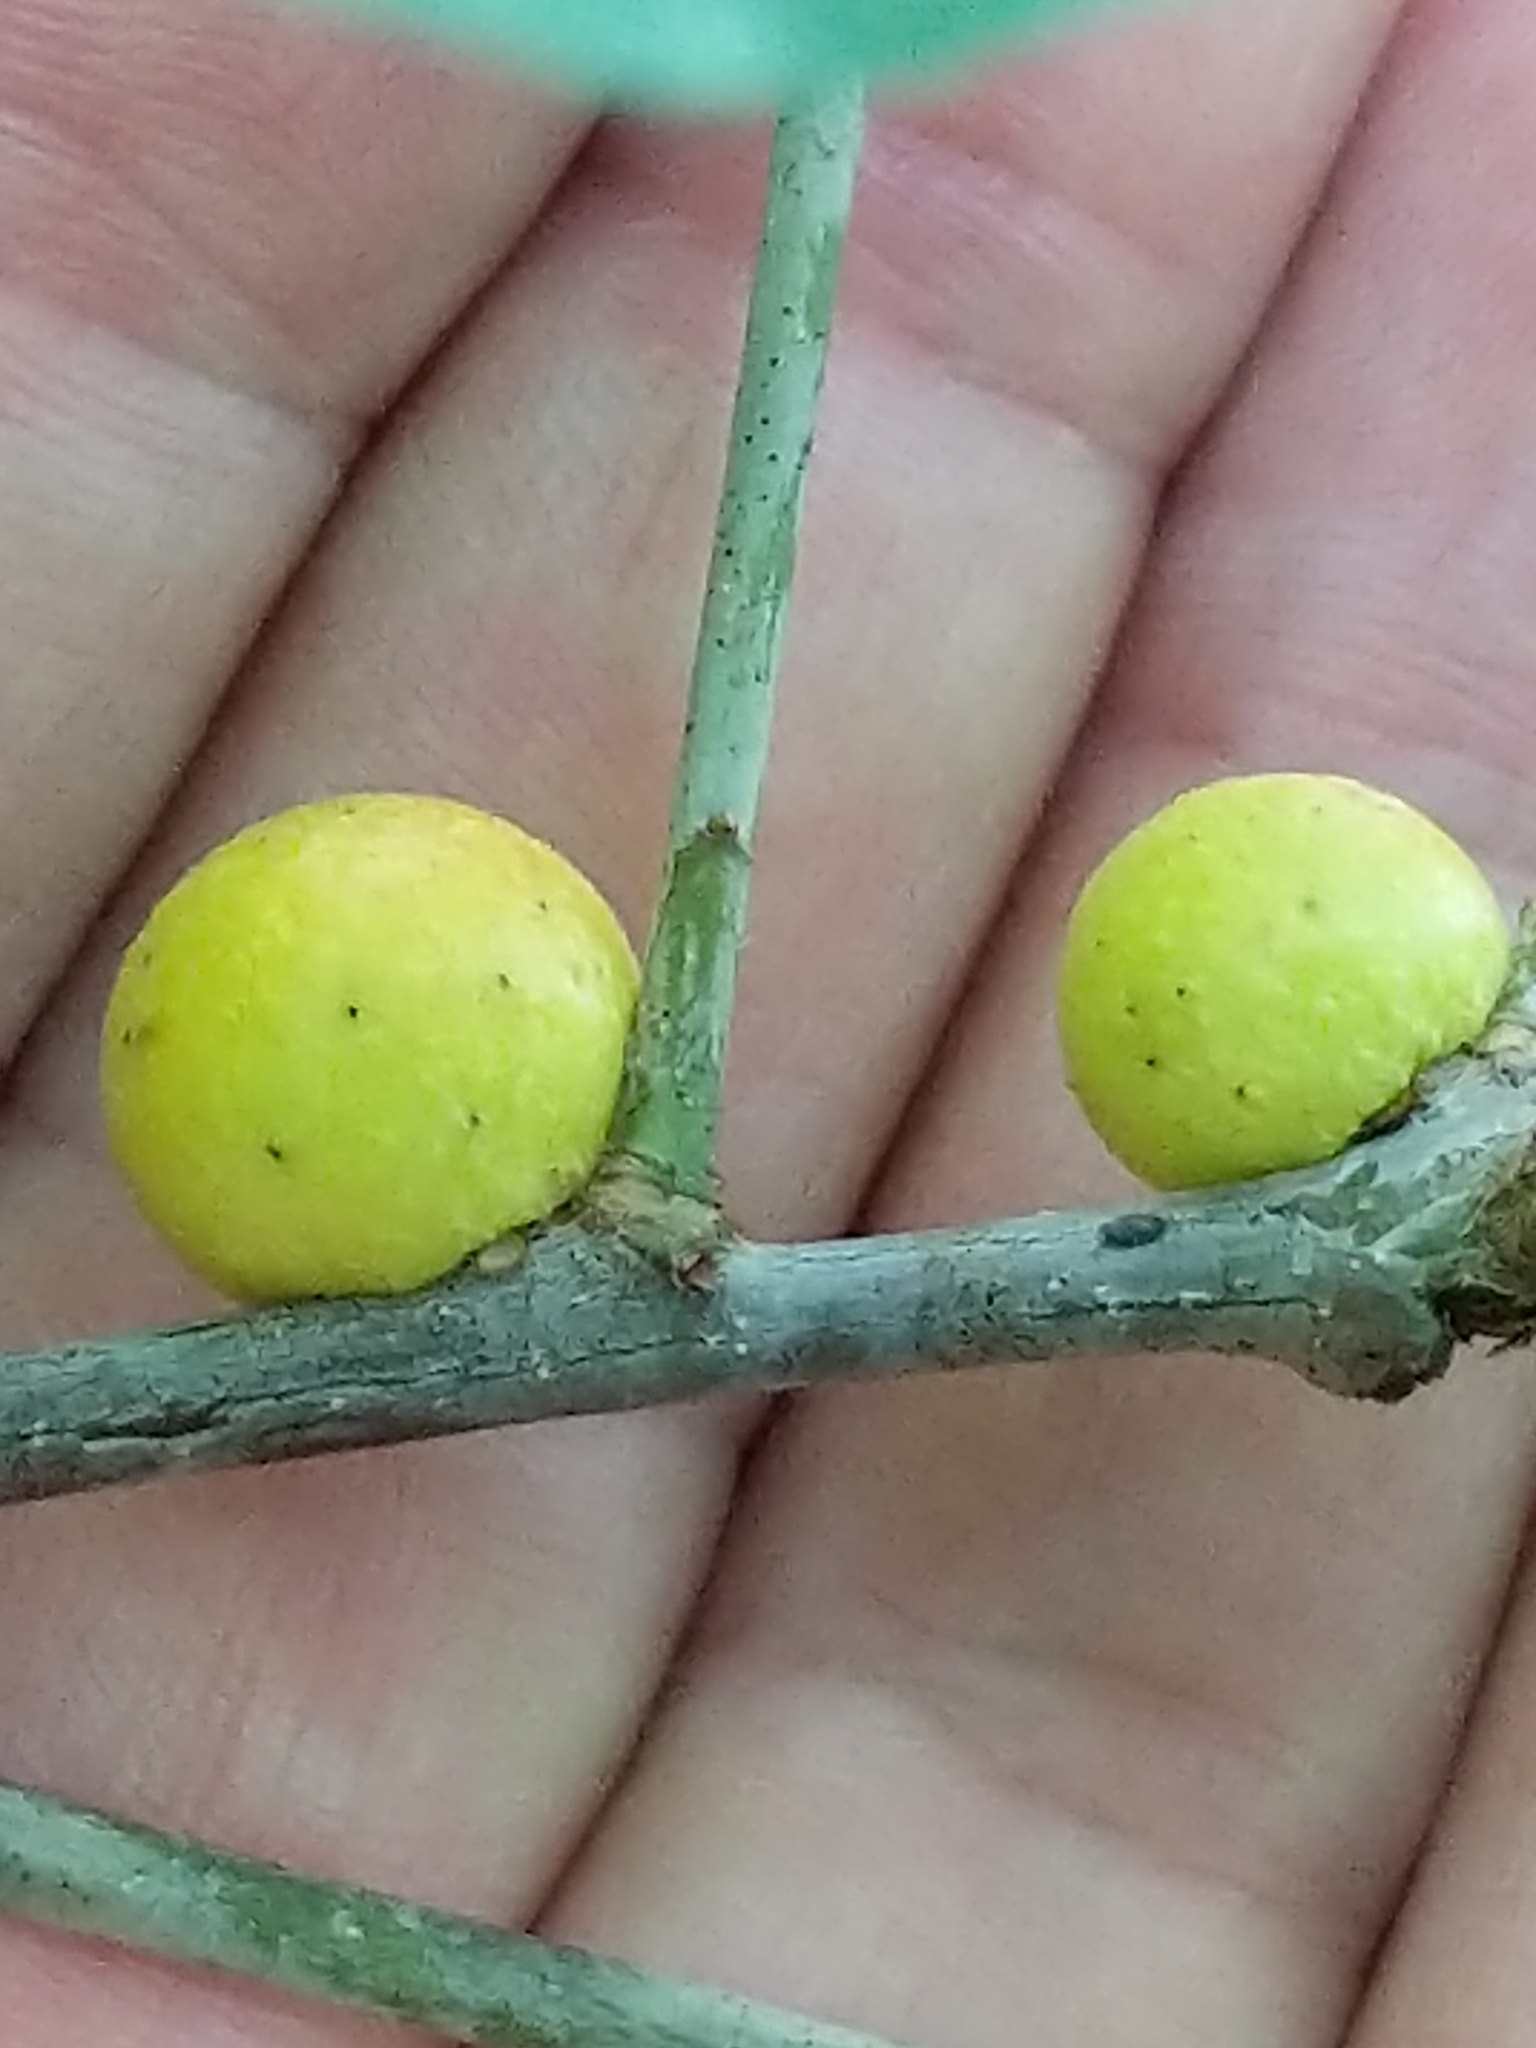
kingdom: Animalia
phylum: Arthropoda
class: Insecta
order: Hymenoptera
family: Cynipidae
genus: Disholcaspis
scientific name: Disholcaspis quercusglobulus
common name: Round bullet gall wasp
